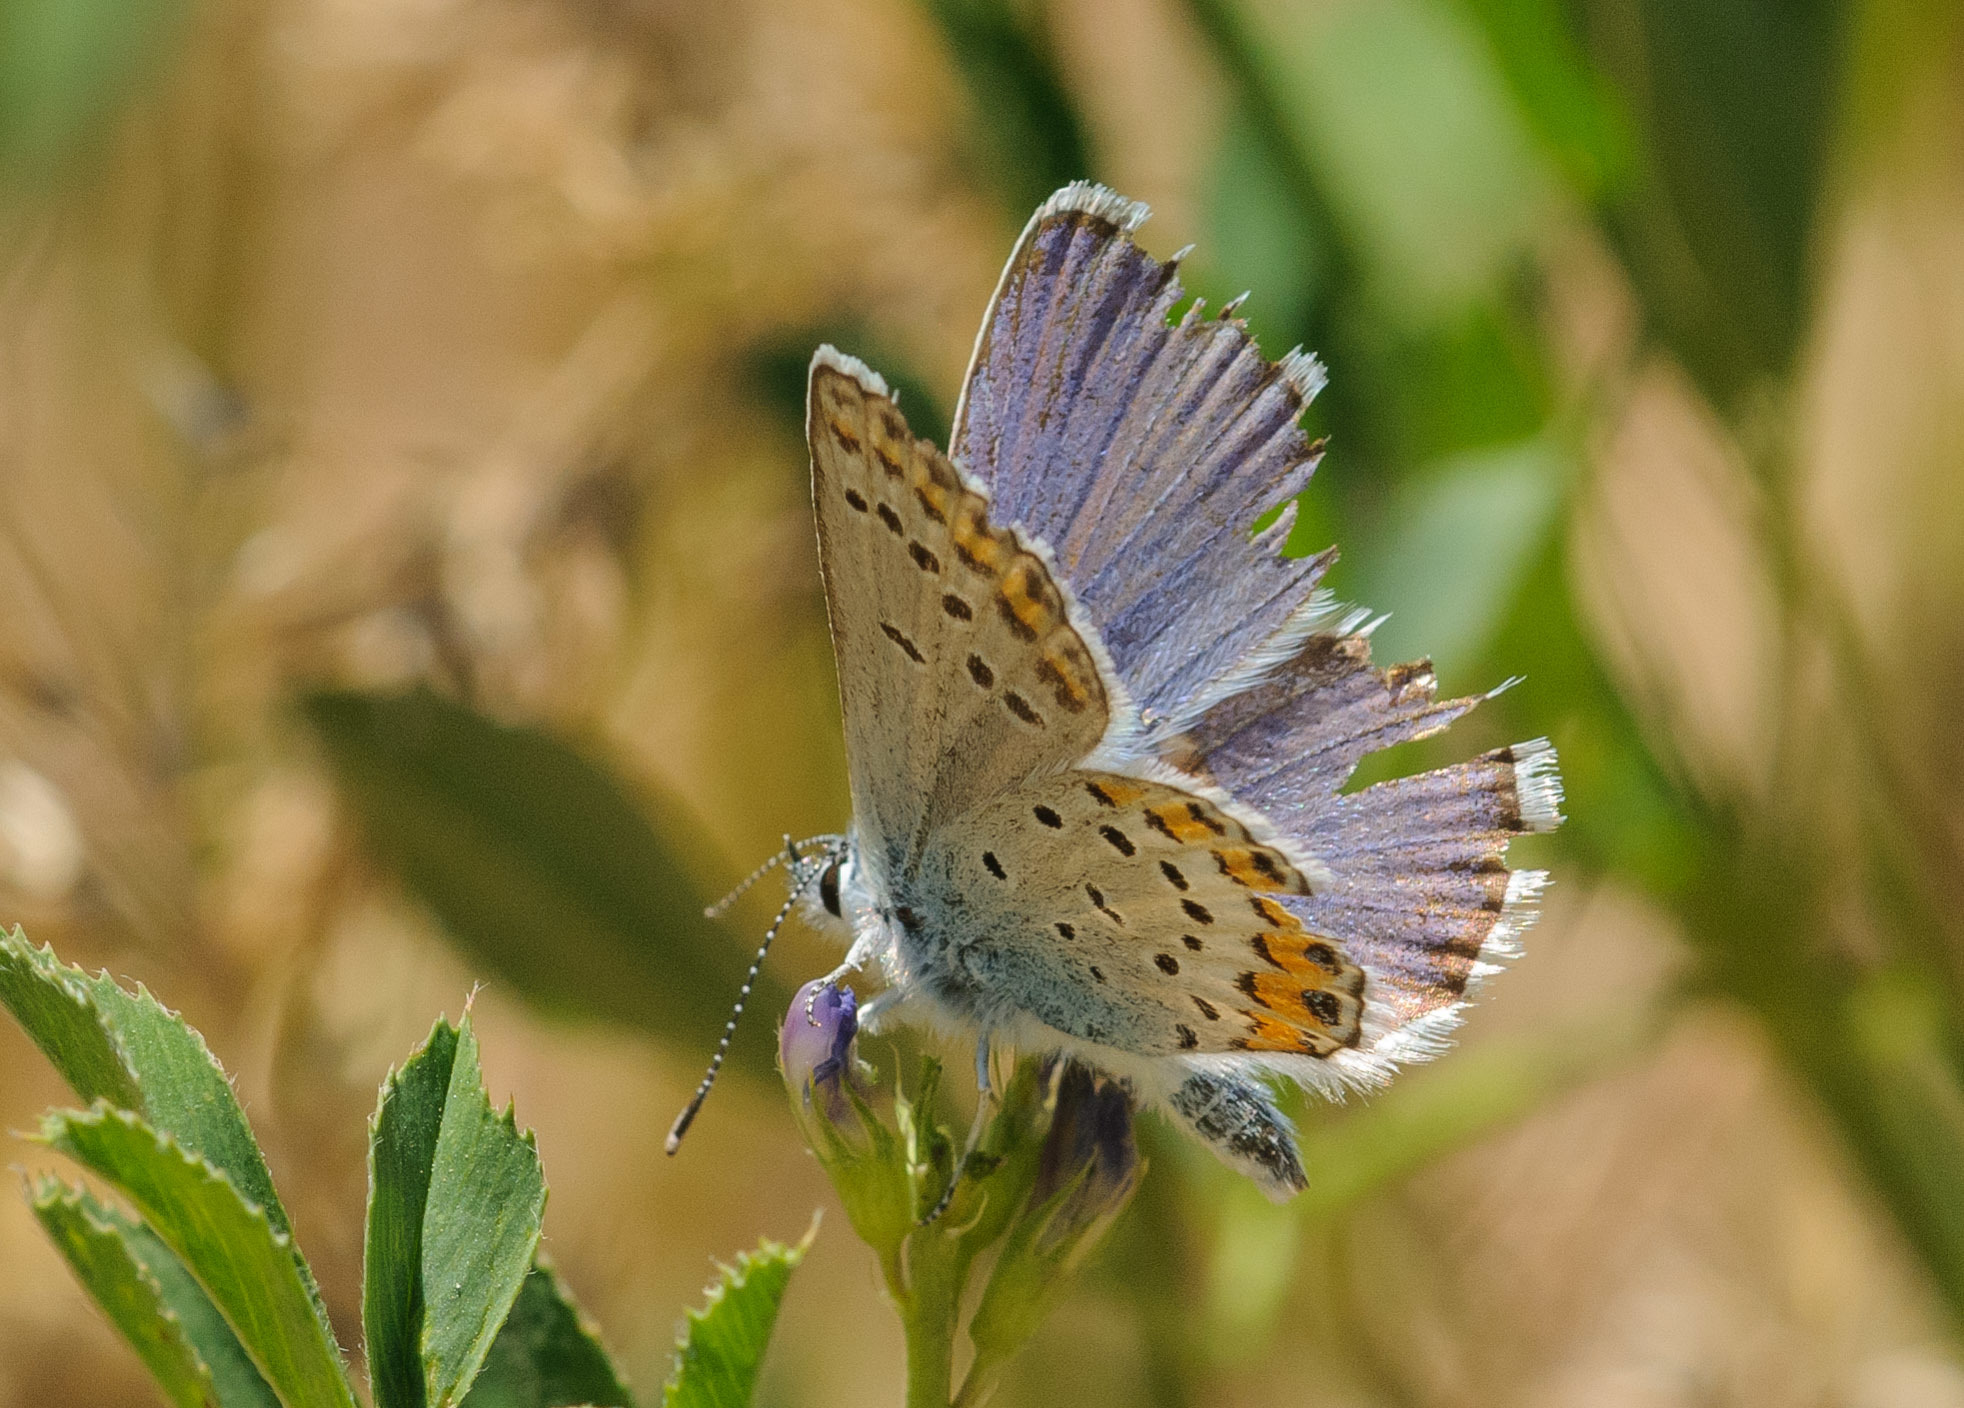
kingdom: Animalia
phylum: Arthropoda
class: Insecta
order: Lepidoptera
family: Lycaenidae
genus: Lycaeides
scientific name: Lycaeides melissa
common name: Melissa blue
